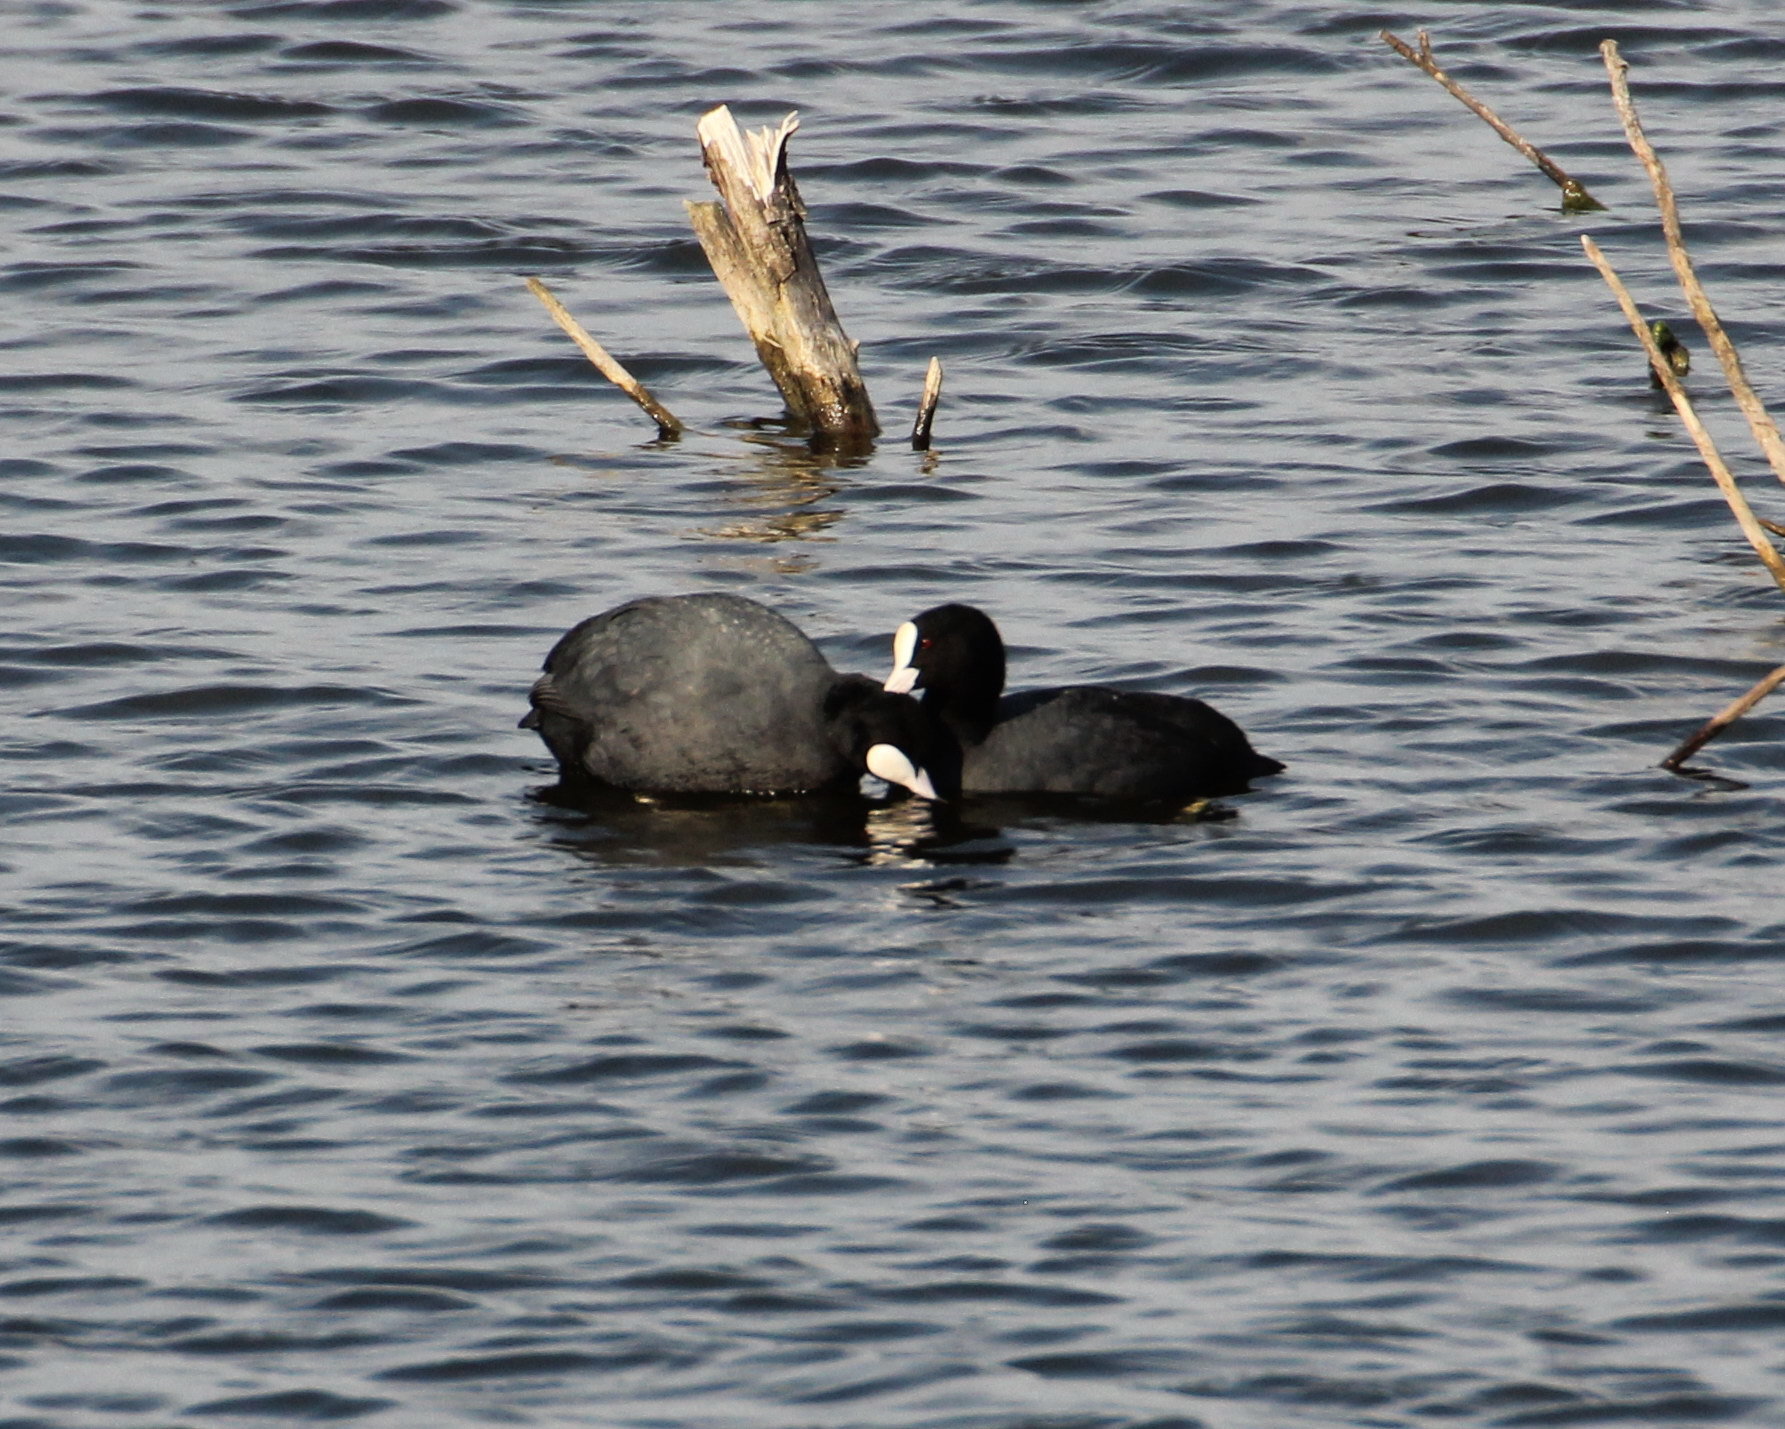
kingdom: Animalia
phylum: Chordata
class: Aves
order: Gruiformes
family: Rallidae
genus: Fulica
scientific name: Fulica atra
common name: Eurasian coot
